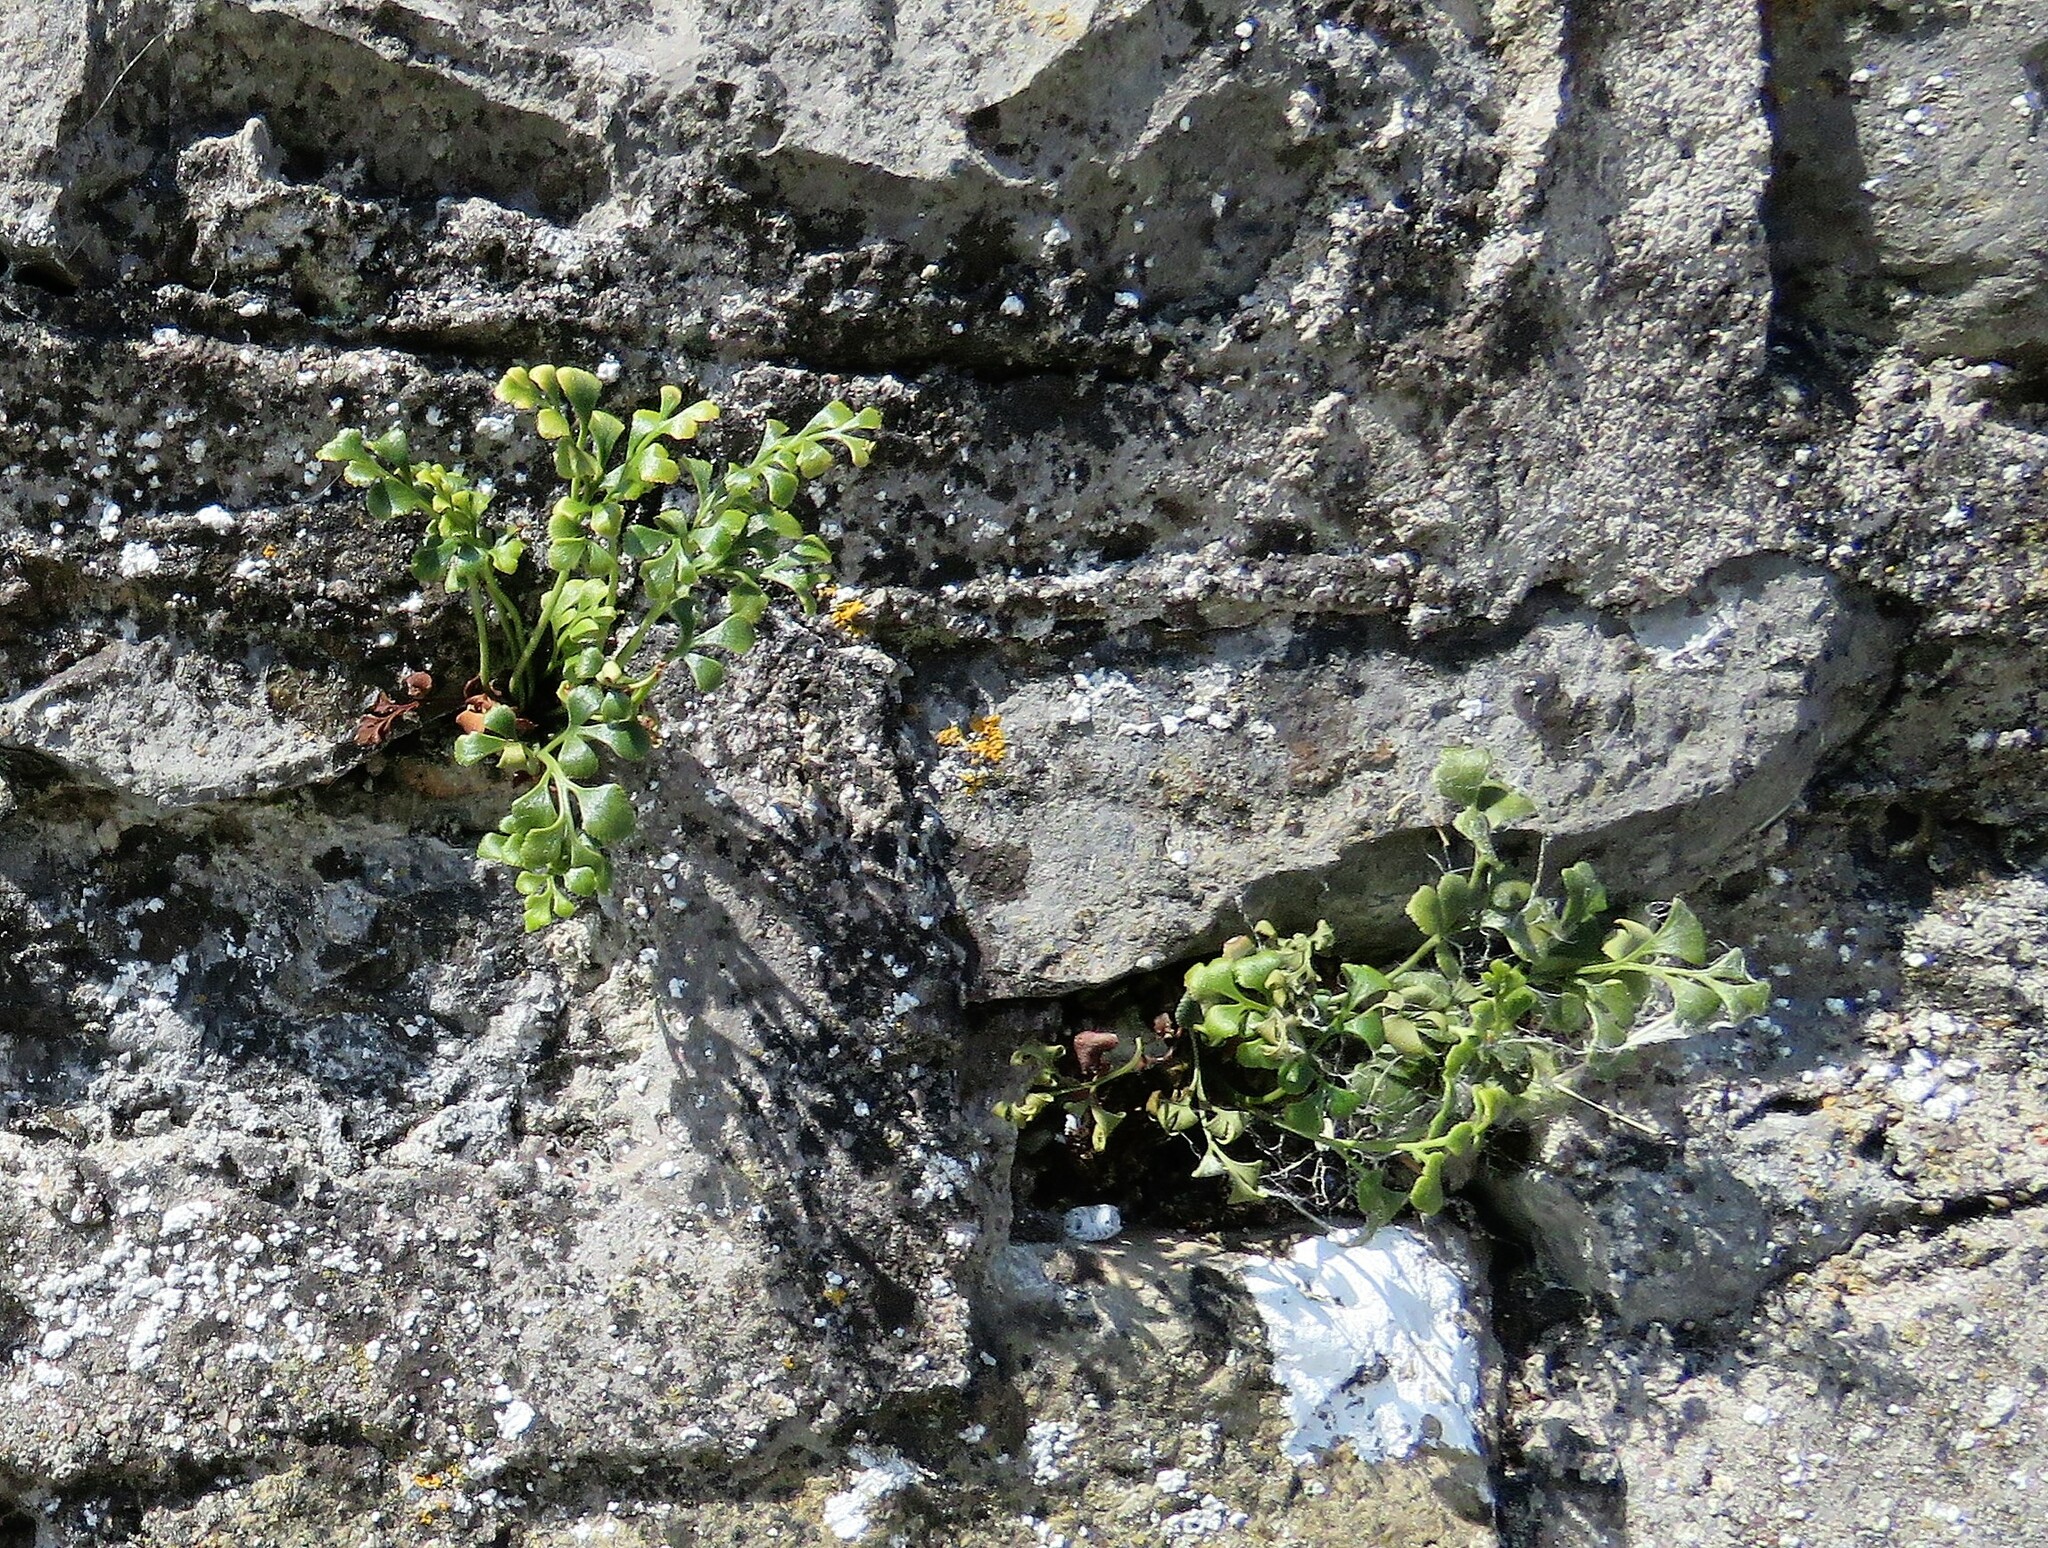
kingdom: Plantae
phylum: Tracheophyta
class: Polypodiopsida
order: Polypodiales
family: Aspleniaceae
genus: Asplenium
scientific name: Asplenium ruta-muraria
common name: Wall-rue
